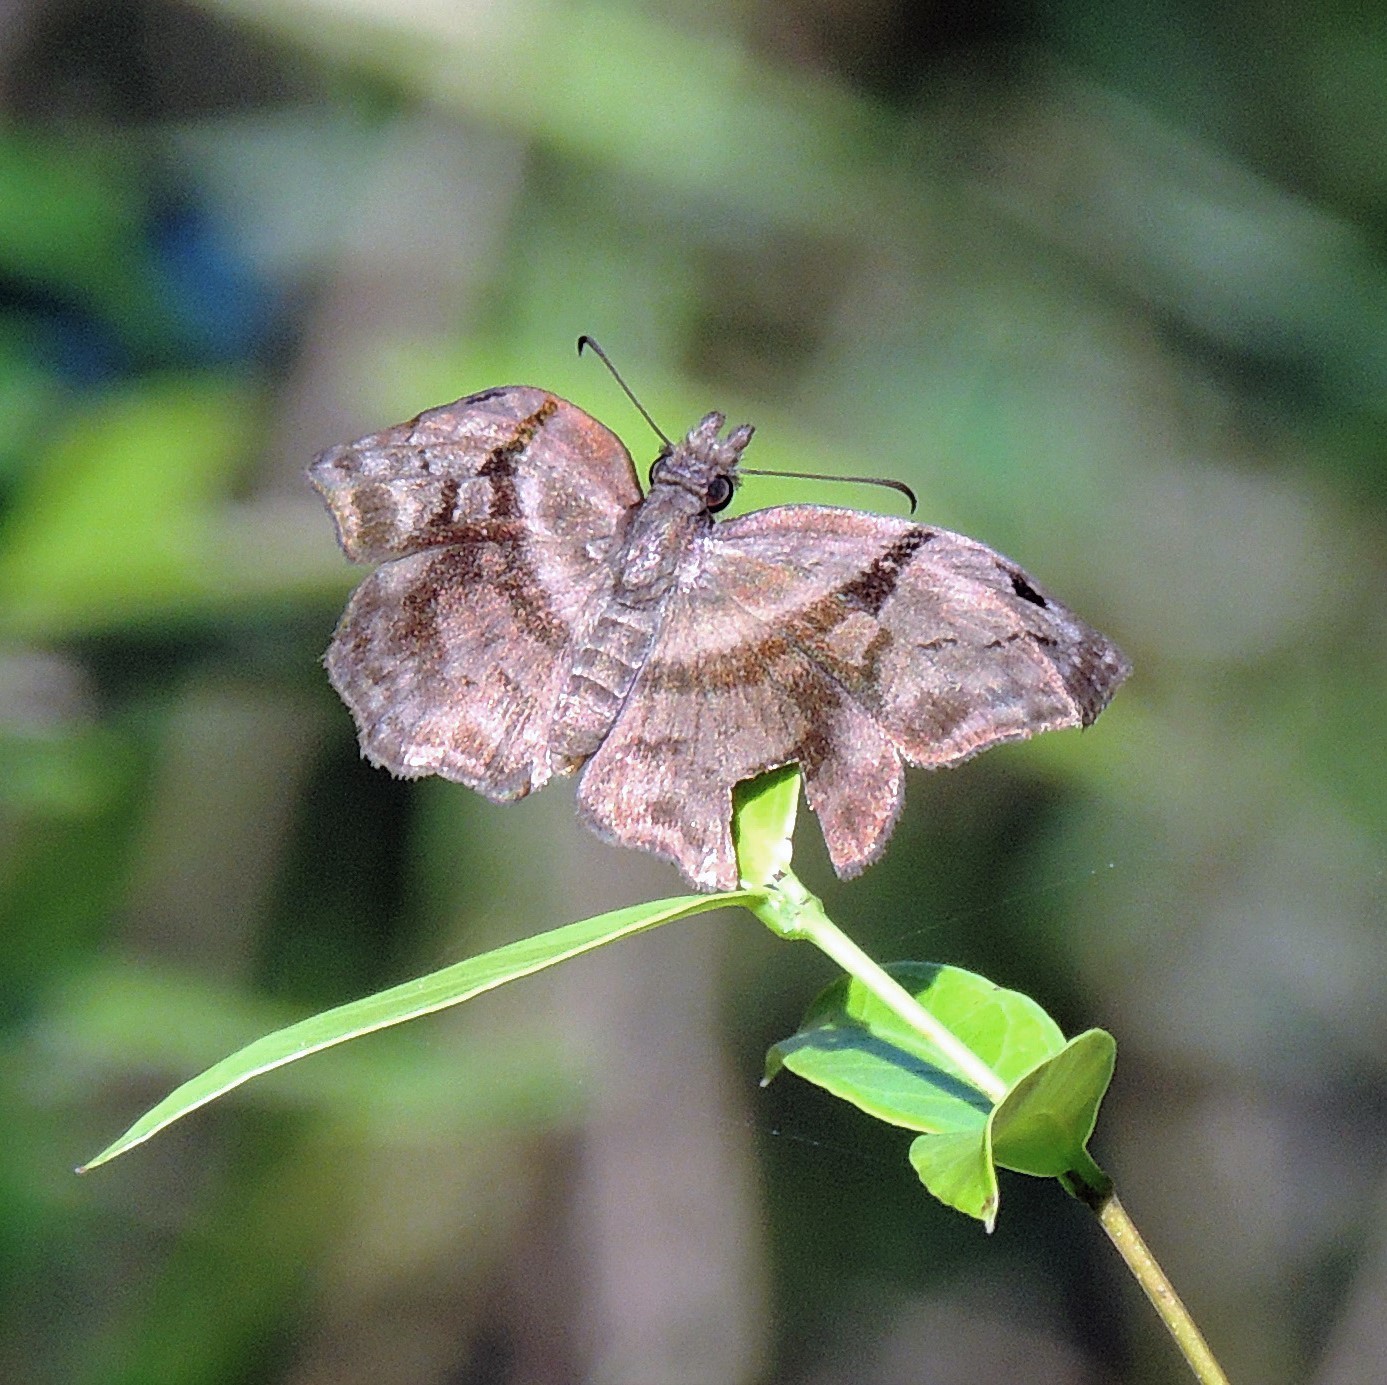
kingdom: Animalia
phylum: Arthropoda
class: Insecta
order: Lepidoptera
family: Hesperiidae
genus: Helias
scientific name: Helias phalaenoides
